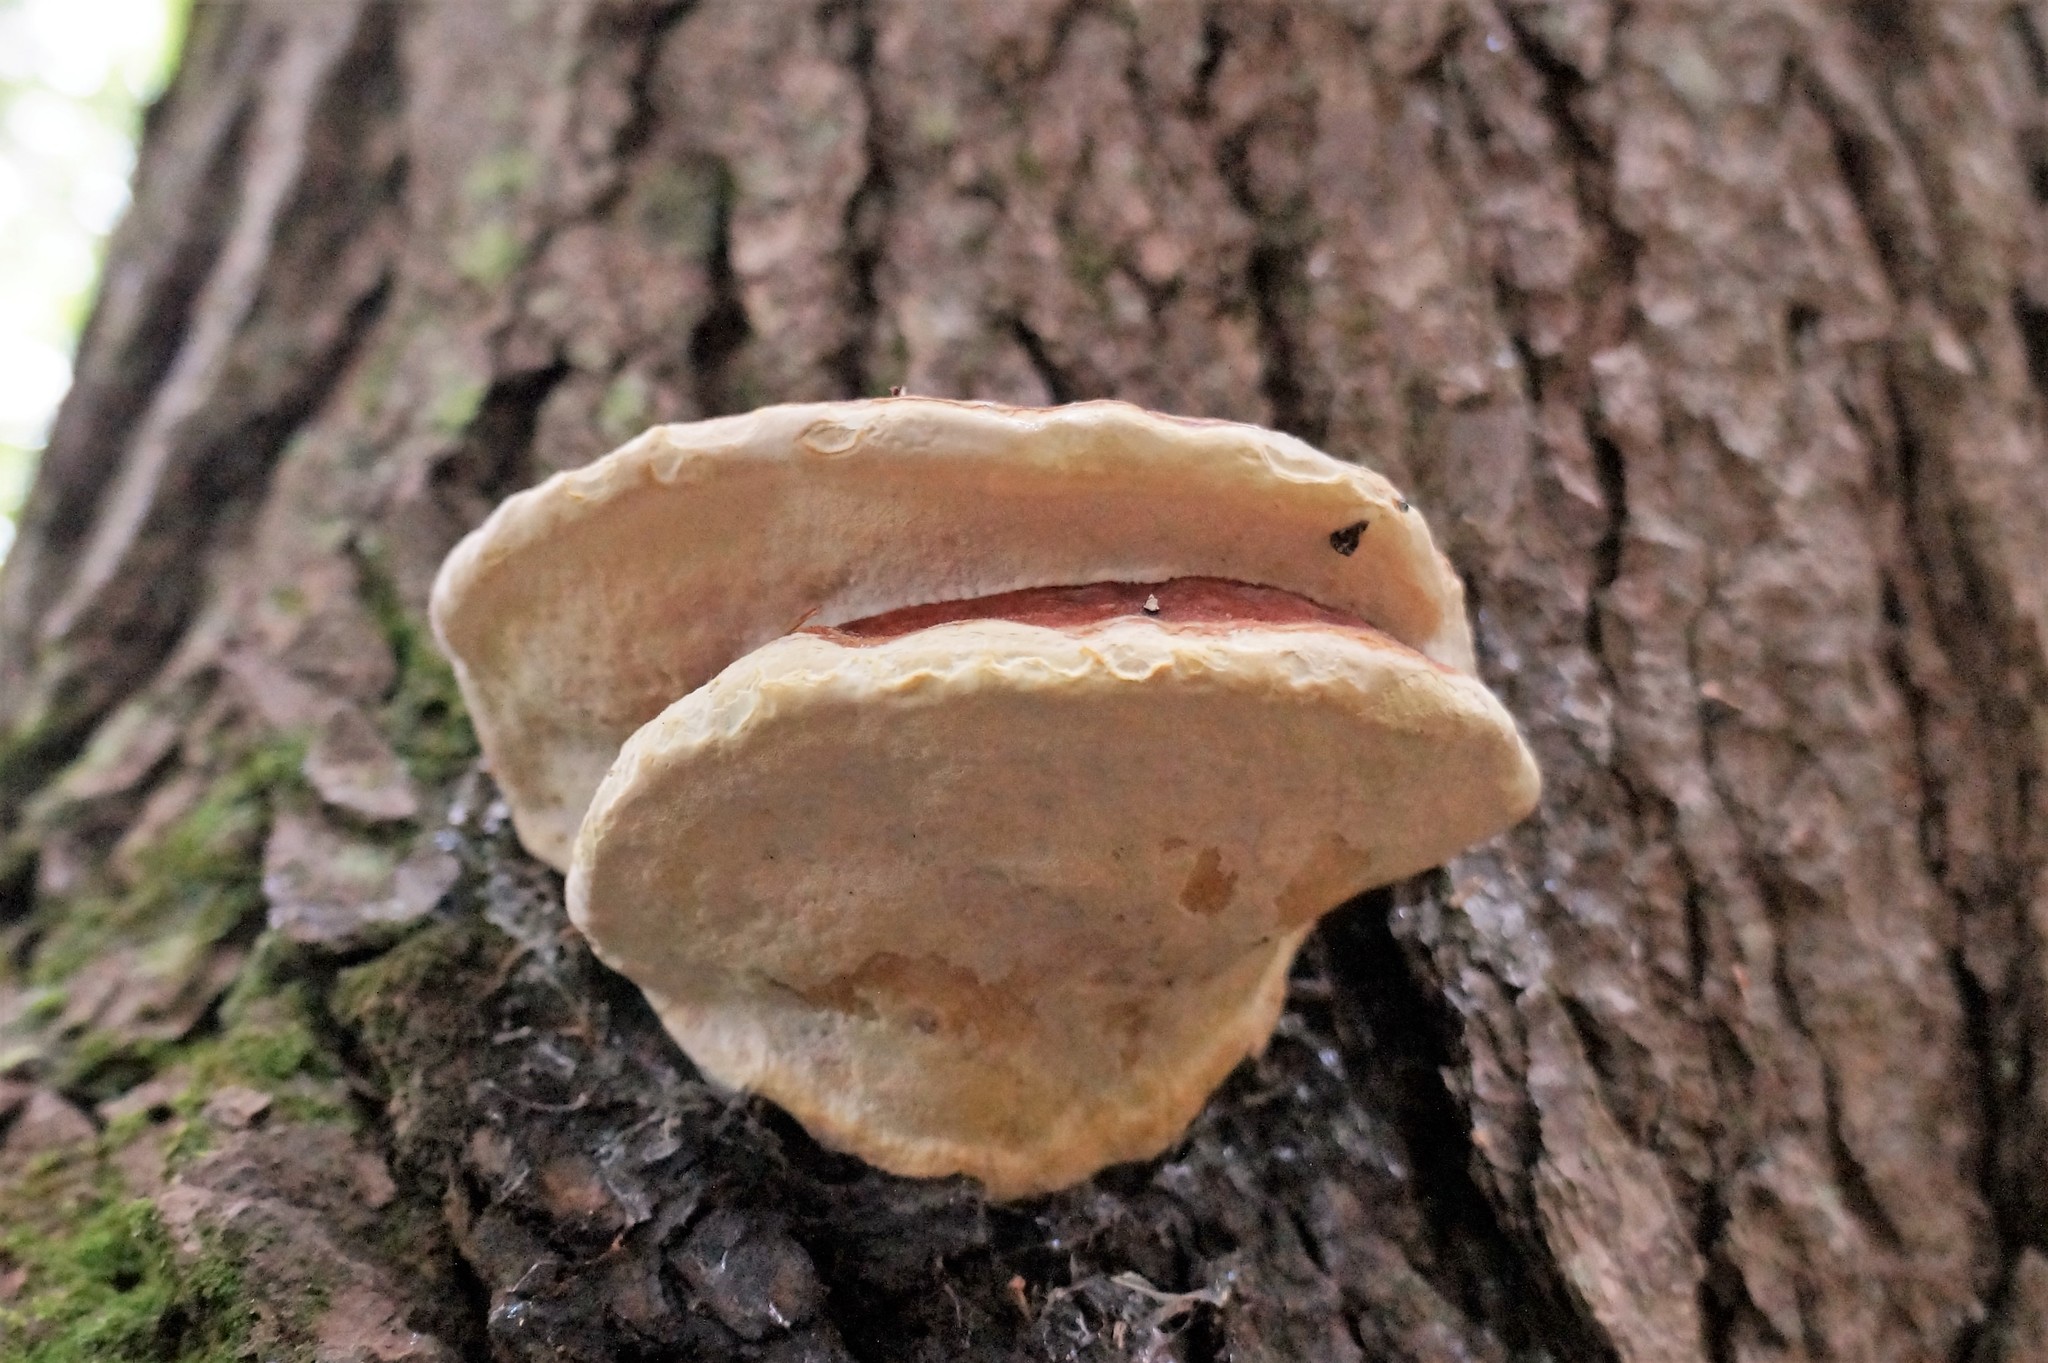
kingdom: Fungi
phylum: Basidiomycota
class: Agaricomycetes
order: Polyporales
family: Fomitopsidaceae
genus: Fomitopsis
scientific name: Fomitopsis mounceae
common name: Northern red belt
